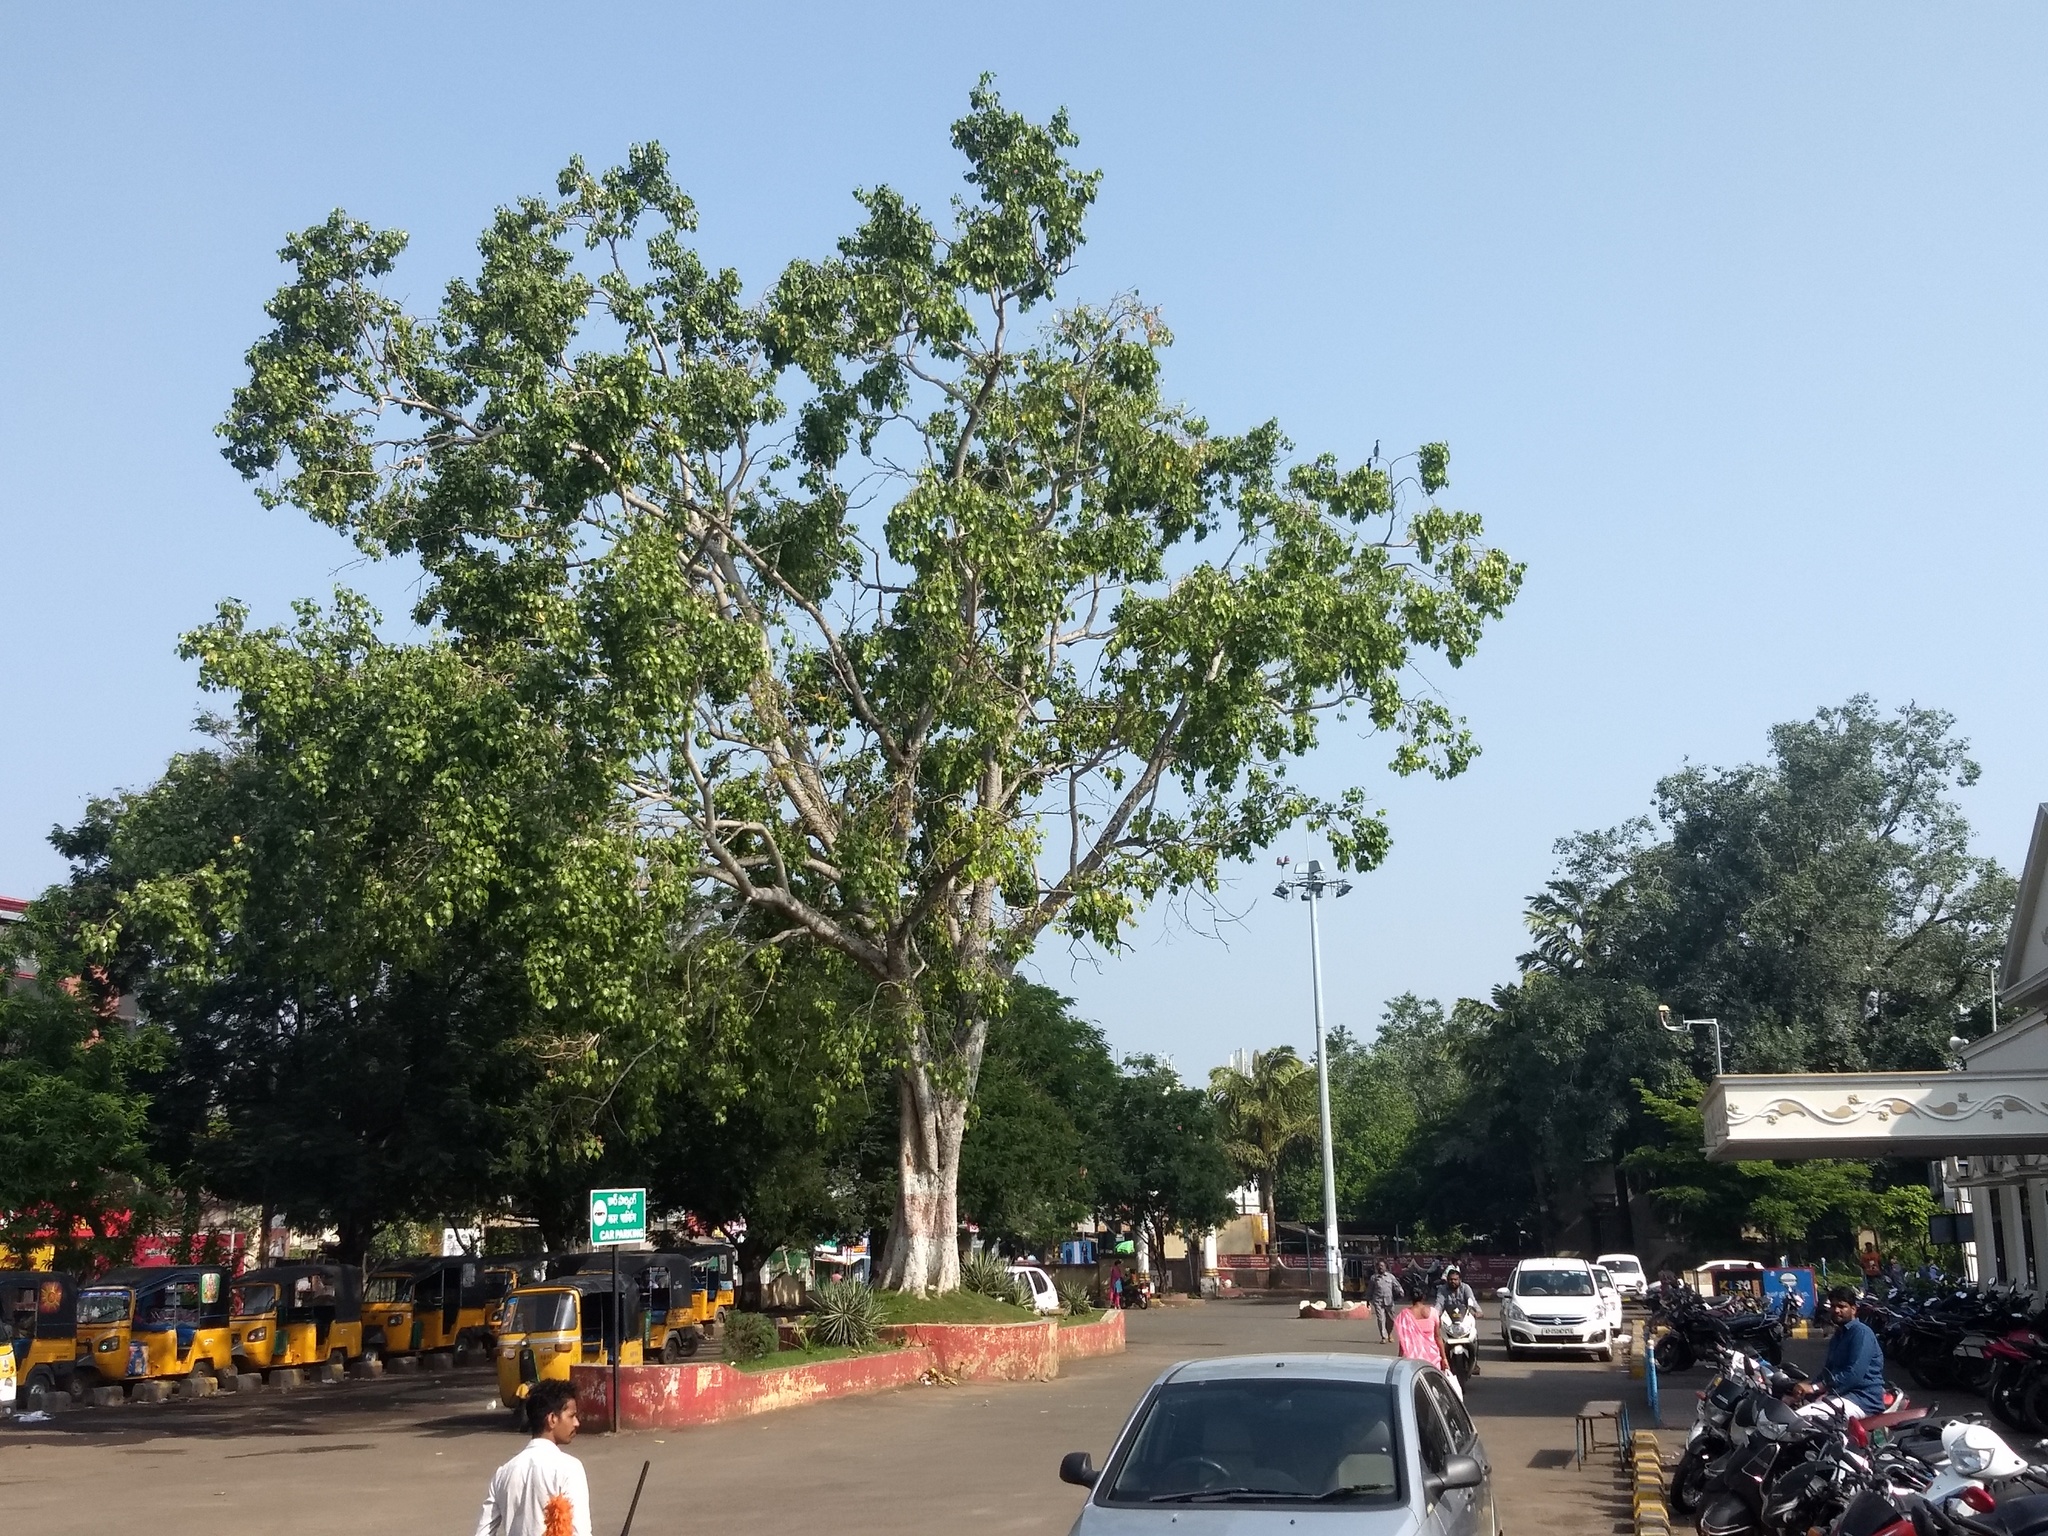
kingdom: Plantae
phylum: Tracheophyta
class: Magnoliopsida
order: Rosales
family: Moraceae
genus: Ficus
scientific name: Ficus religiosa
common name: Bodhi tree
